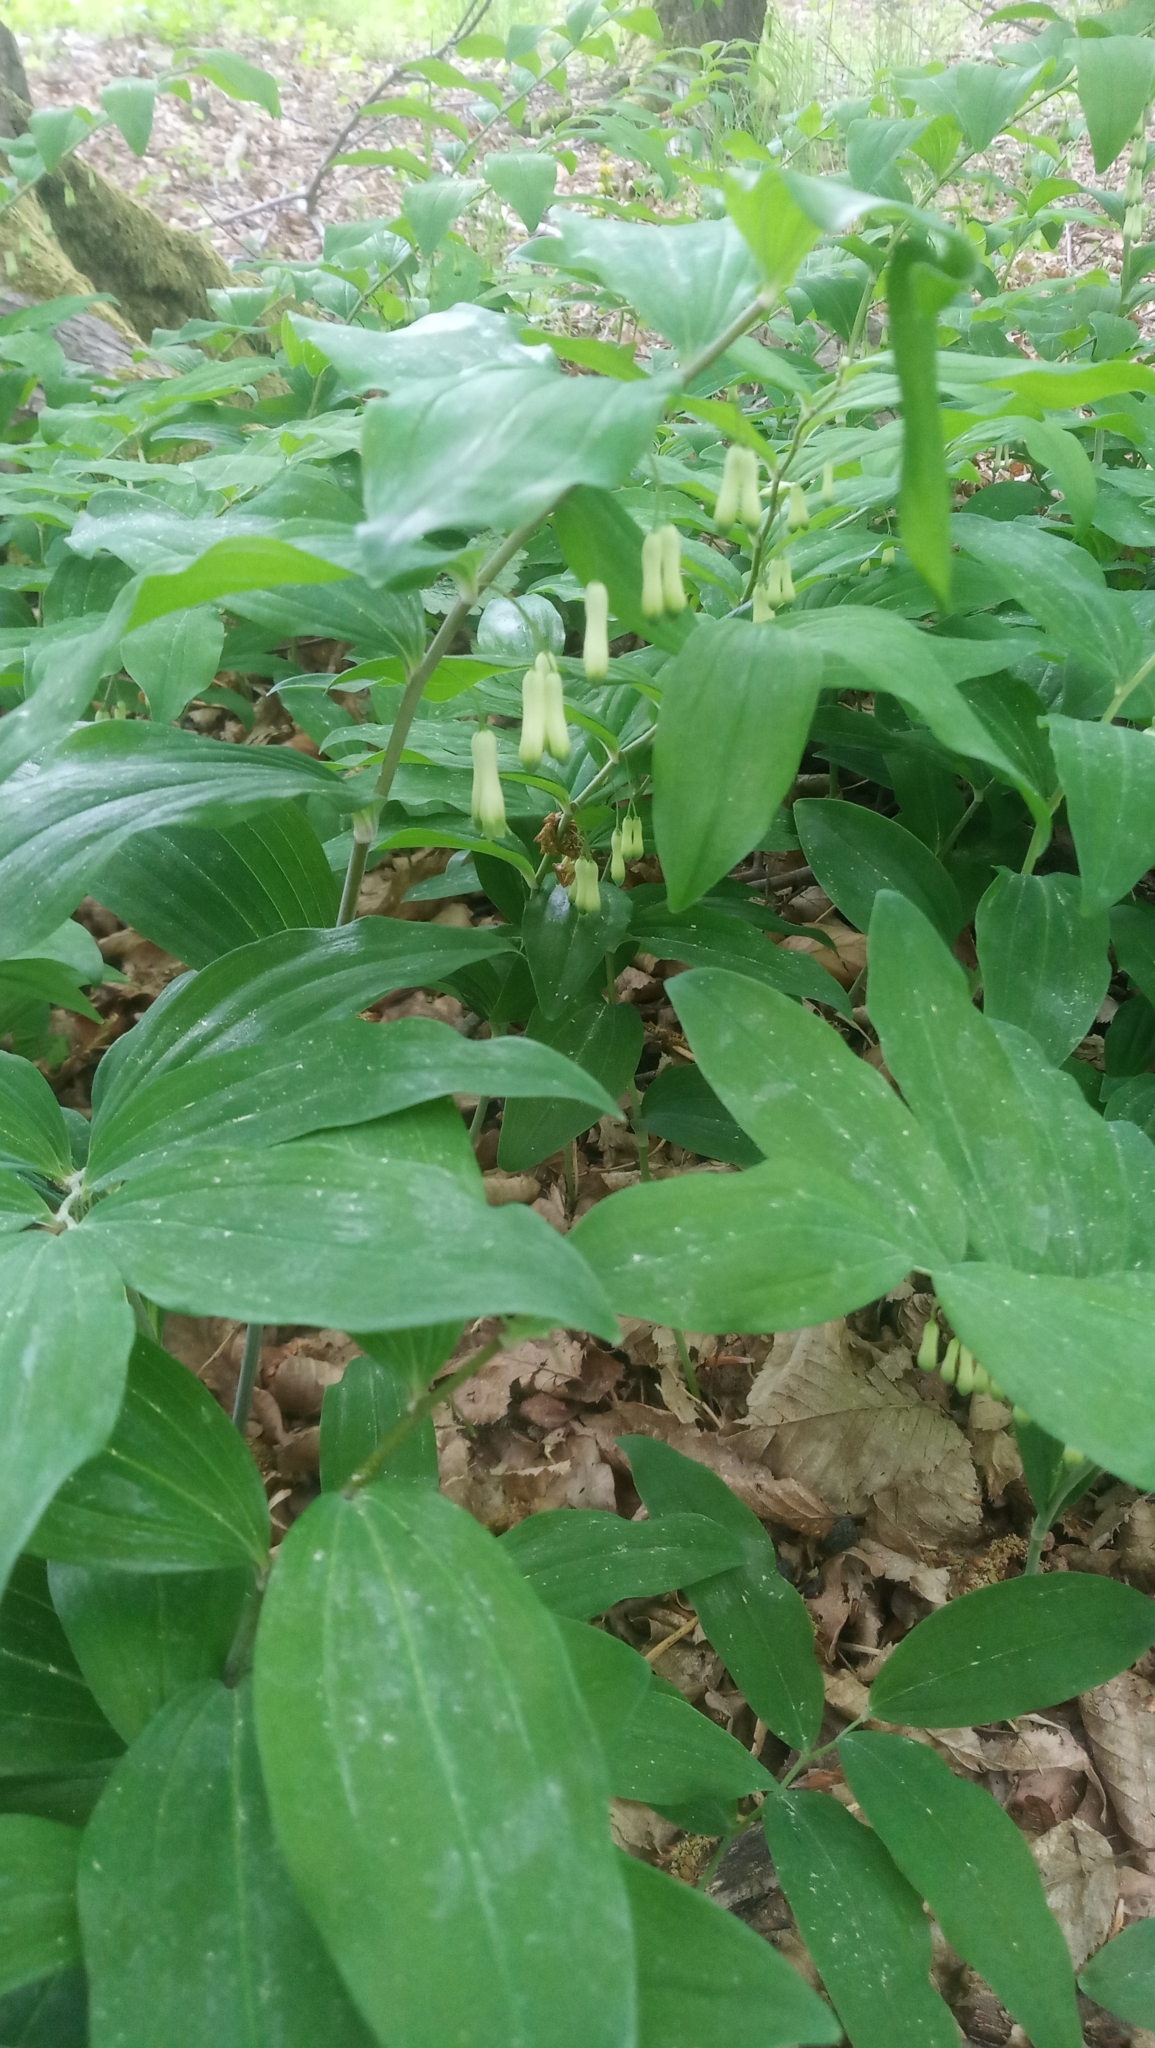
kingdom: Plantae
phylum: Tracheophyta
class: Liliopsida
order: Asparagales
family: Asparagaceae
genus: Polygonatum
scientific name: Polygonatum multiflorum
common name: Solomon's-seal
